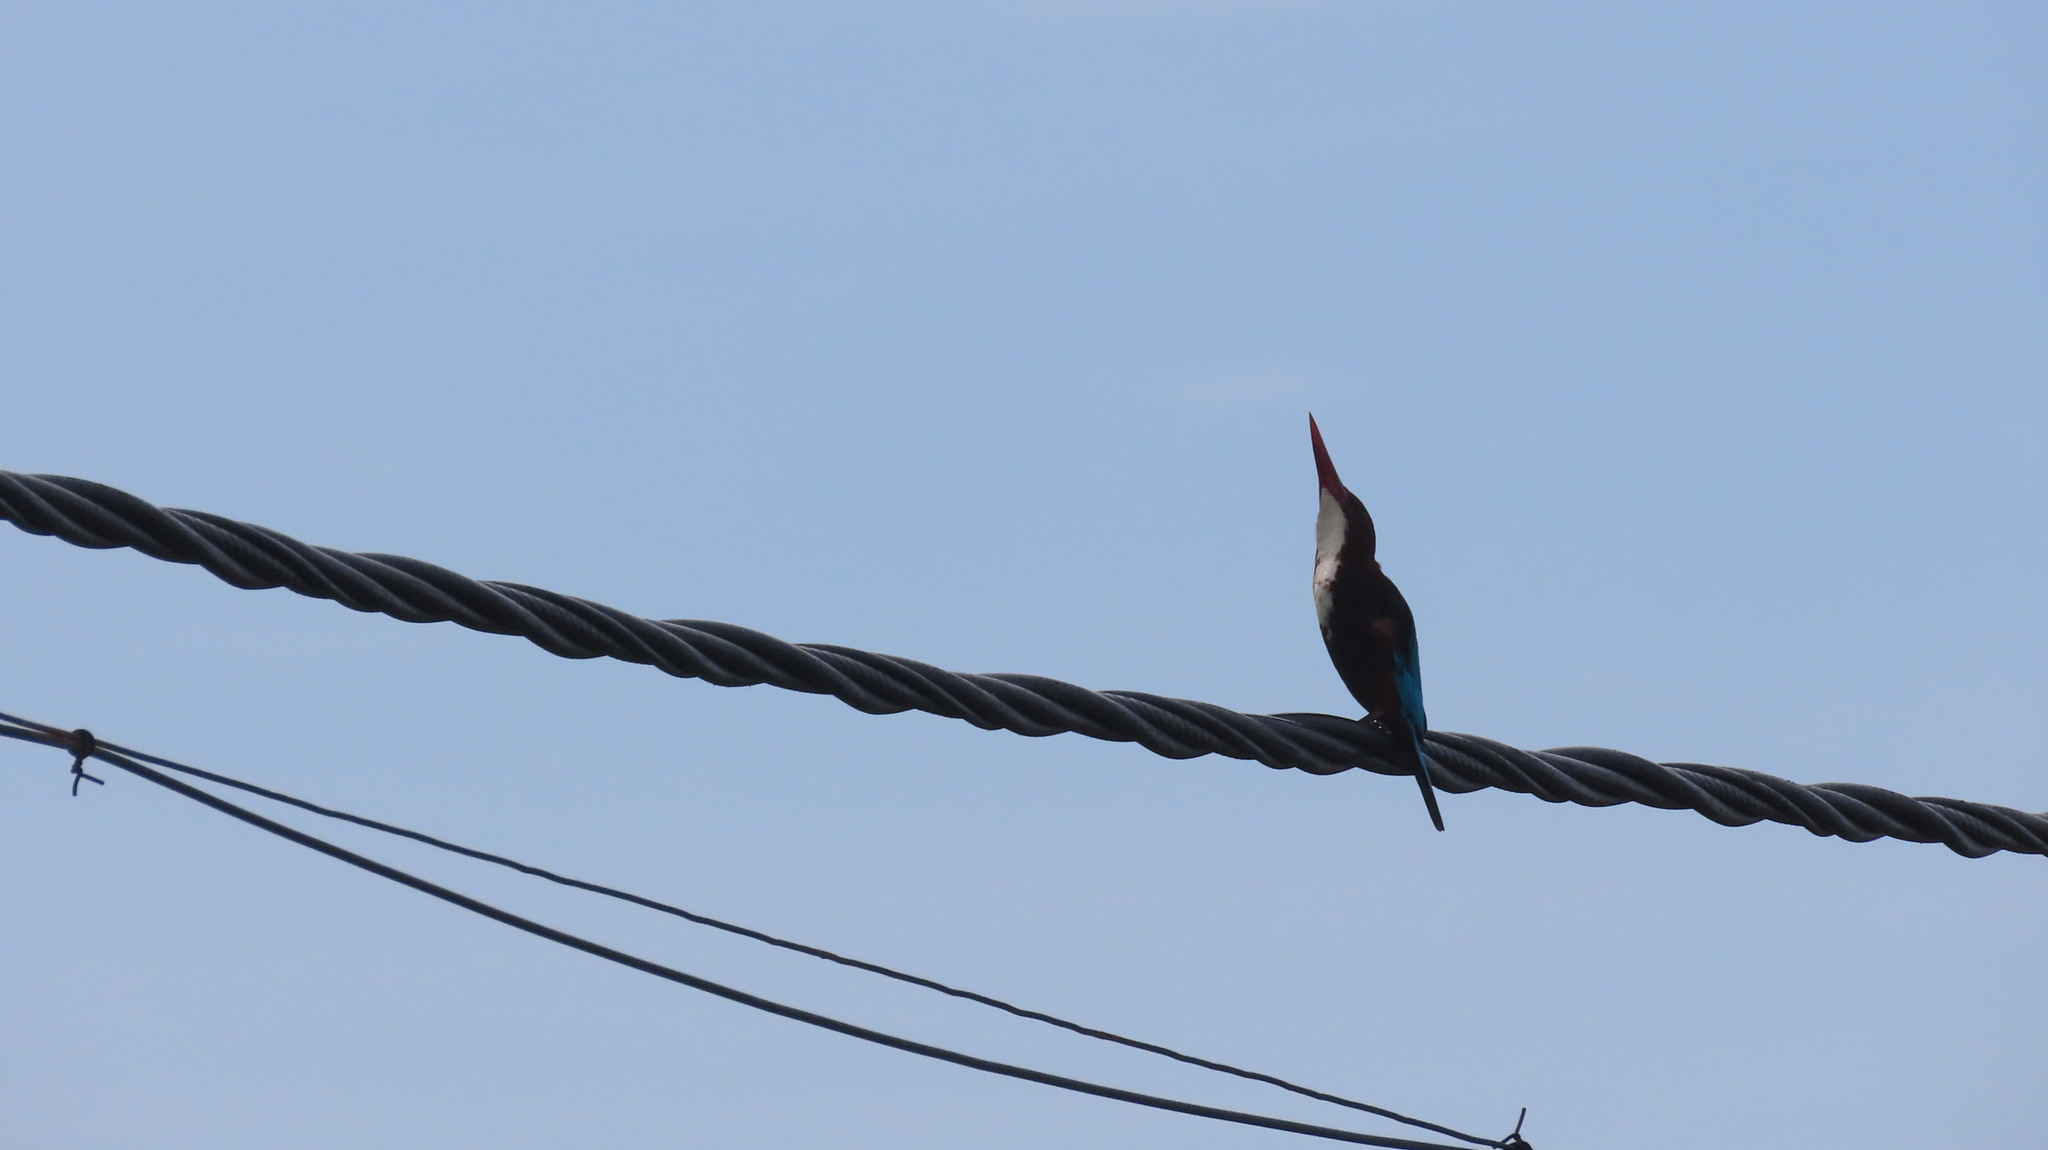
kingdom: Animalia
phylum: Chordata
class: Aves
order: Coraciiformes
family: Alcedinidae
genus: Halcyon
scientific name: Halcyon smyrnensis
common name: White-throated kingfisher
